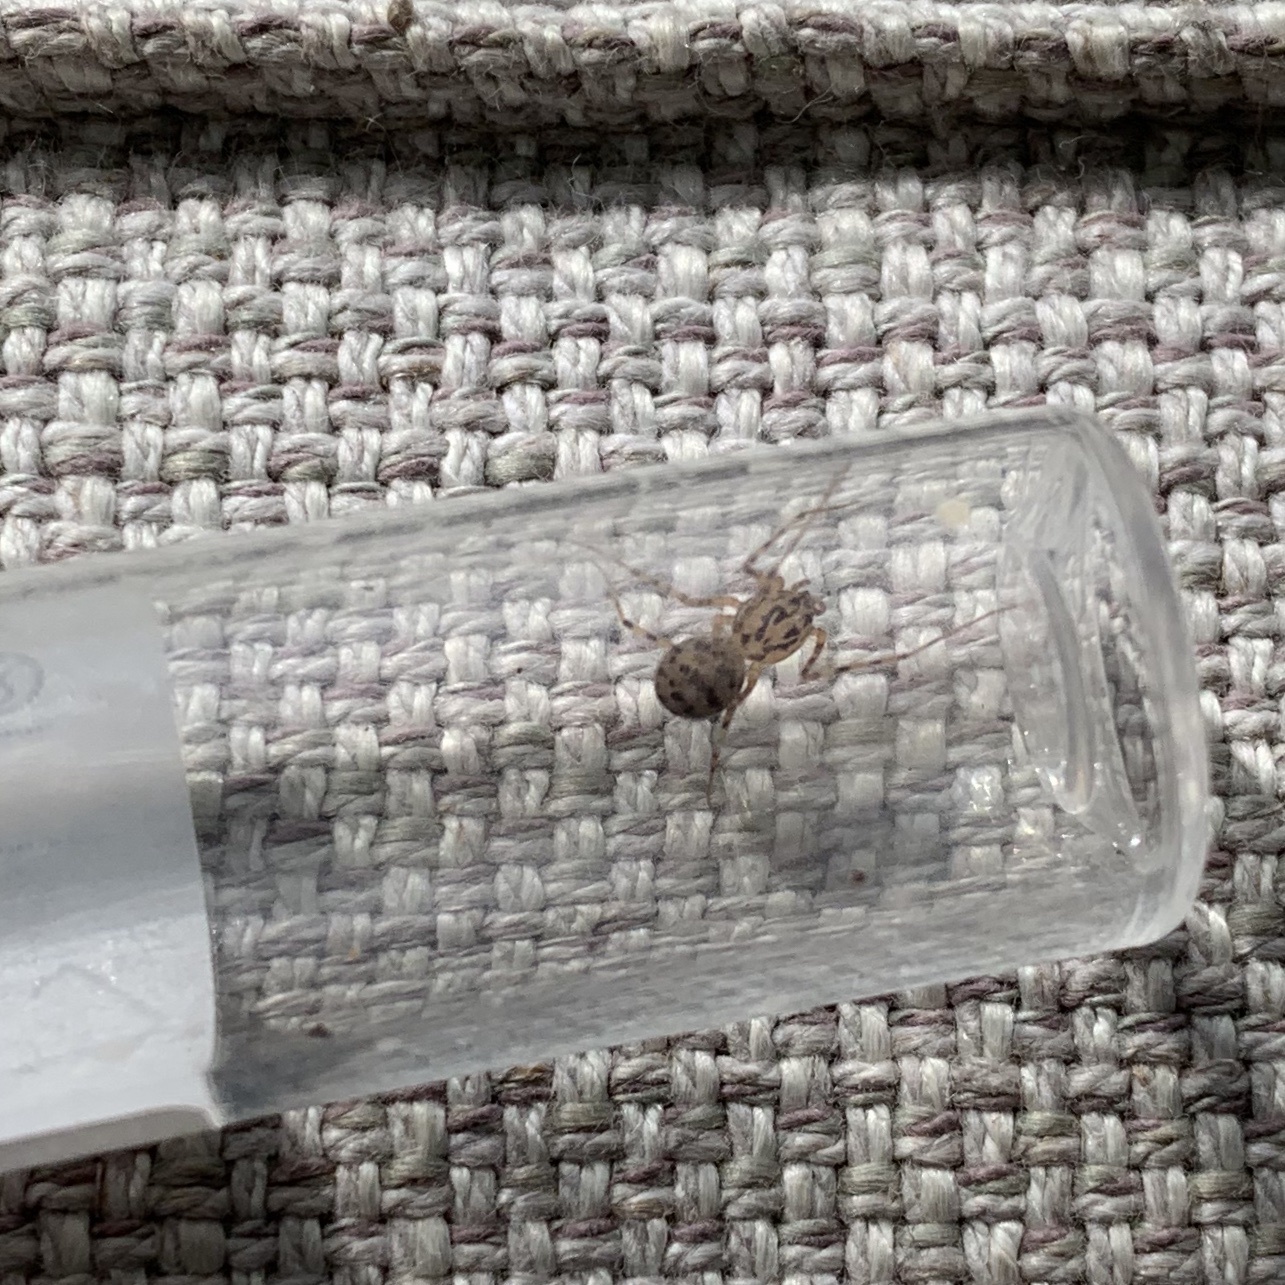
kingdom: Animalia
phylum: Arthropoda
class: Arachnida
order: Araneae
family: Scytodidae
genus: Scytodes
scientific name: Scytodes thoracica
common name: Spitting spider
